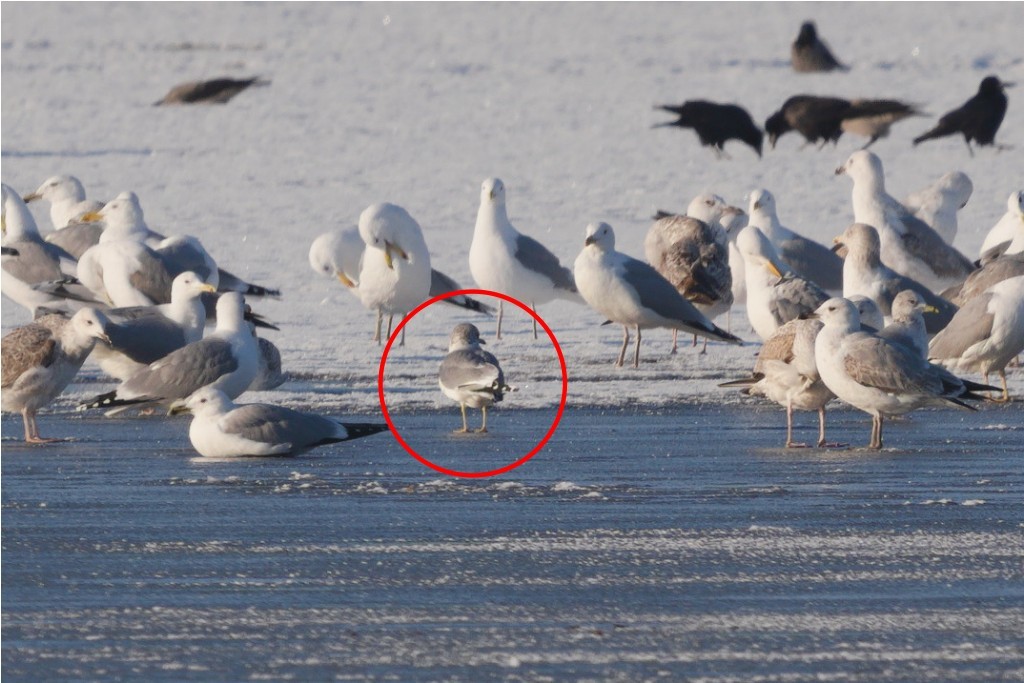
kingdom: Animalia
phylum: Chordata
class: Aves
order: Charadriiformes
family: Laridae
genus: Larus
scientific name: Larus canus
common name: Mew gull
